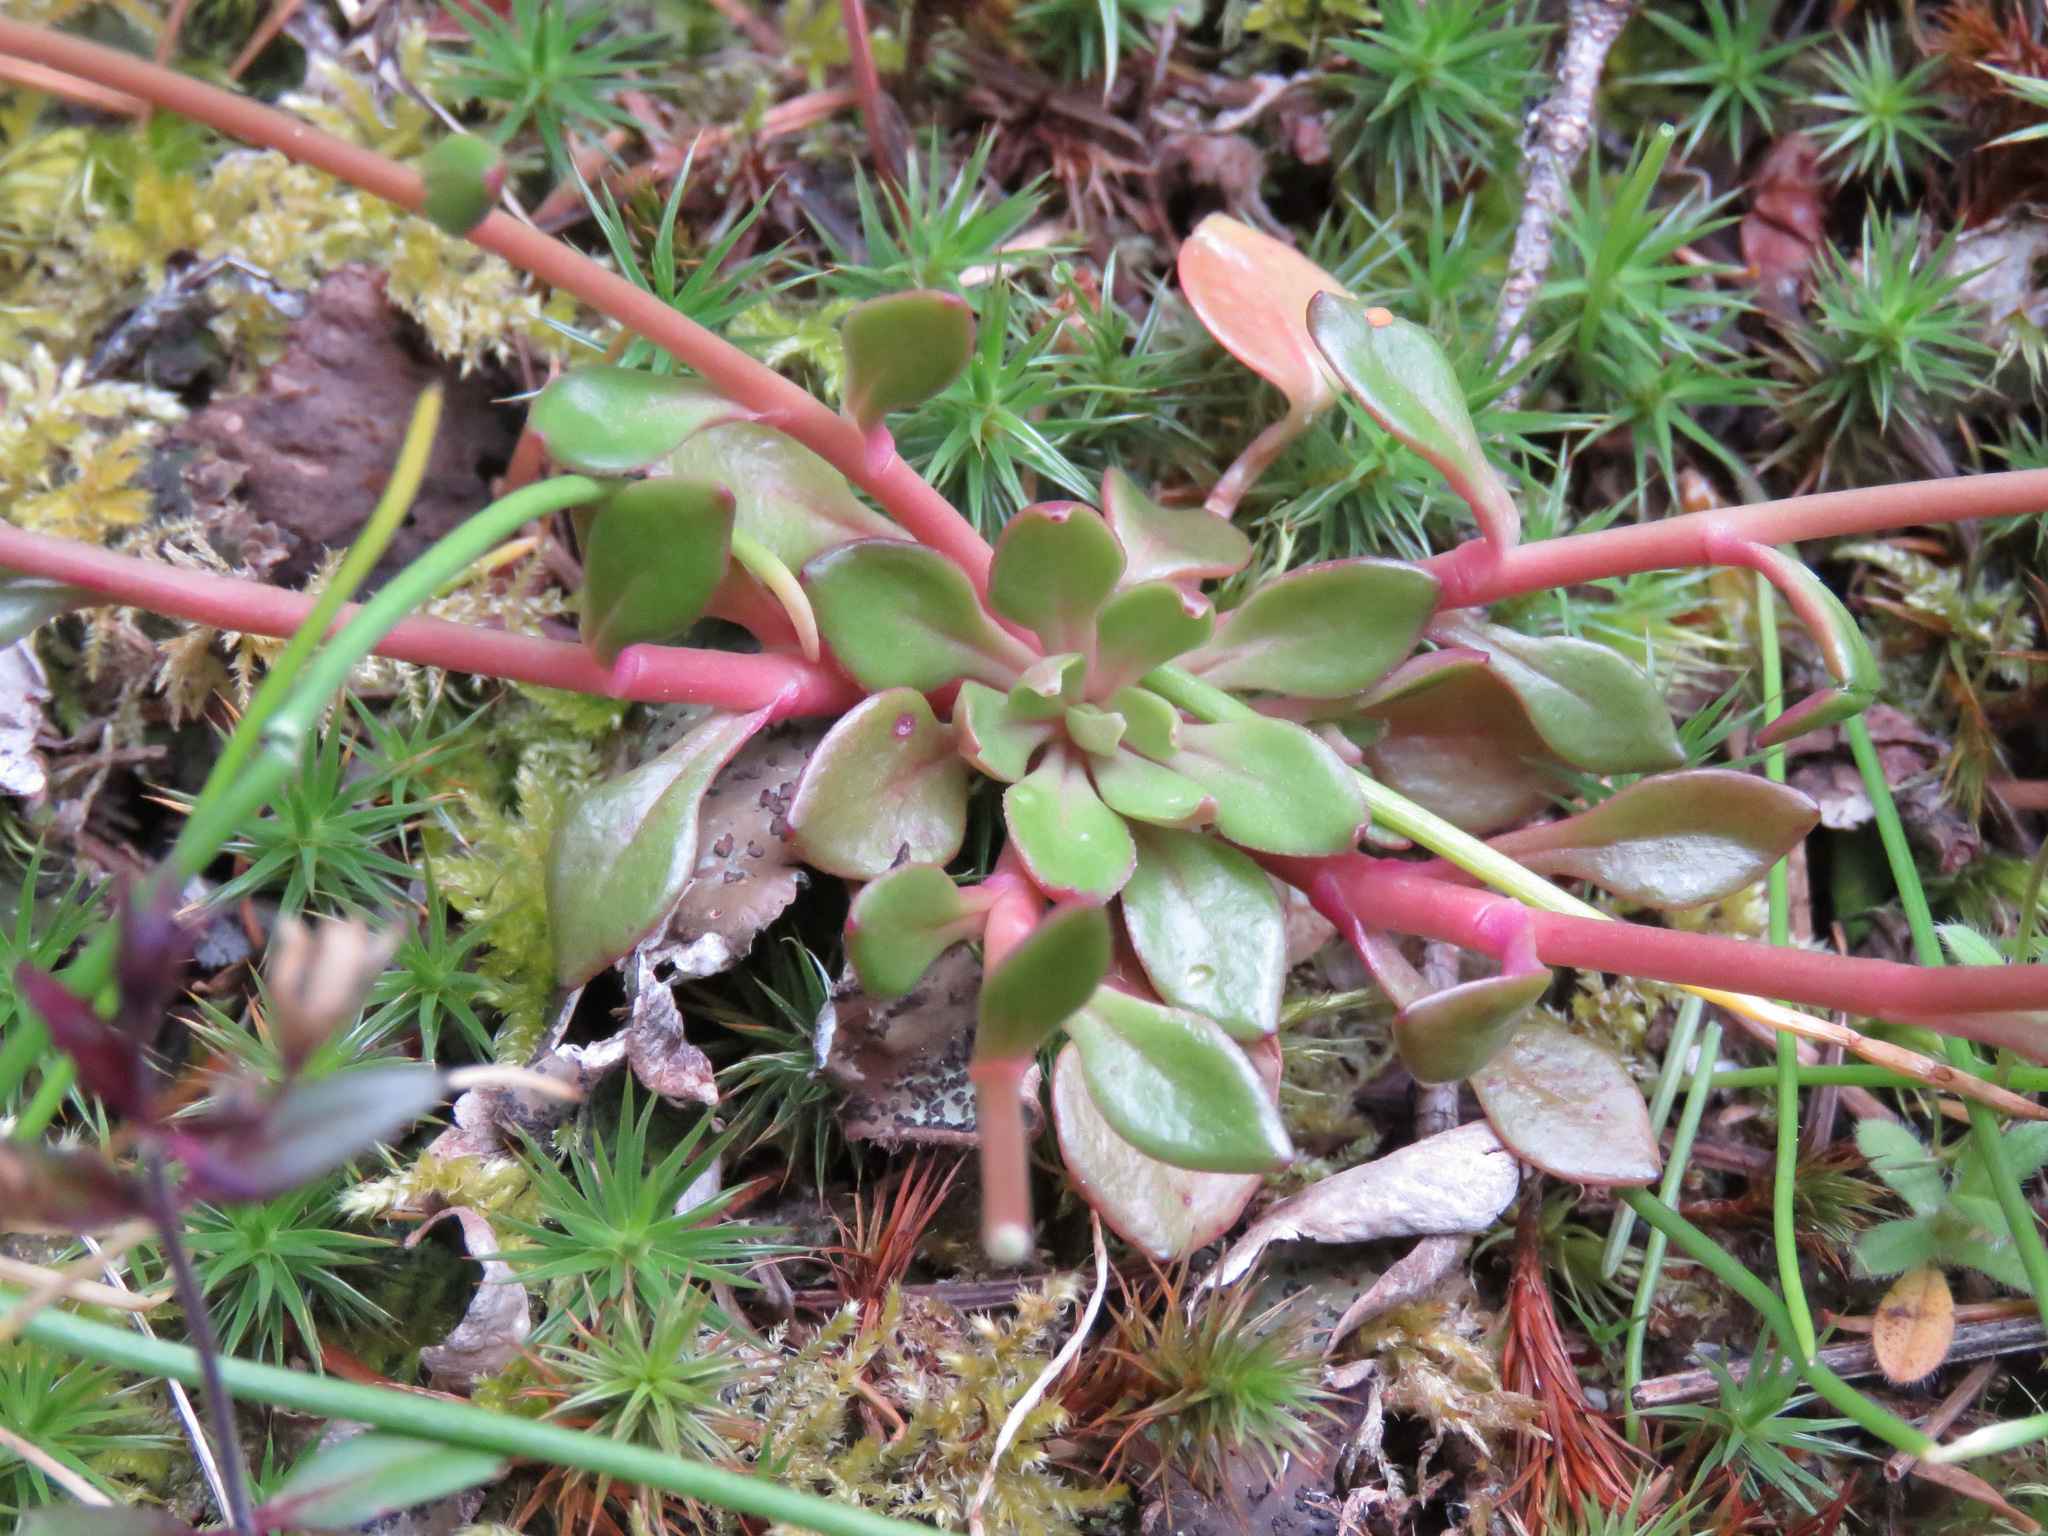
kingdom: Plantae
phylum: Tracheophyta
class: Magnoliopsida
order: Caryophyllales
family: Montiaceae
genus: Montia
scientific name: Montia parvifolia
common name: Small-leaved blinks
